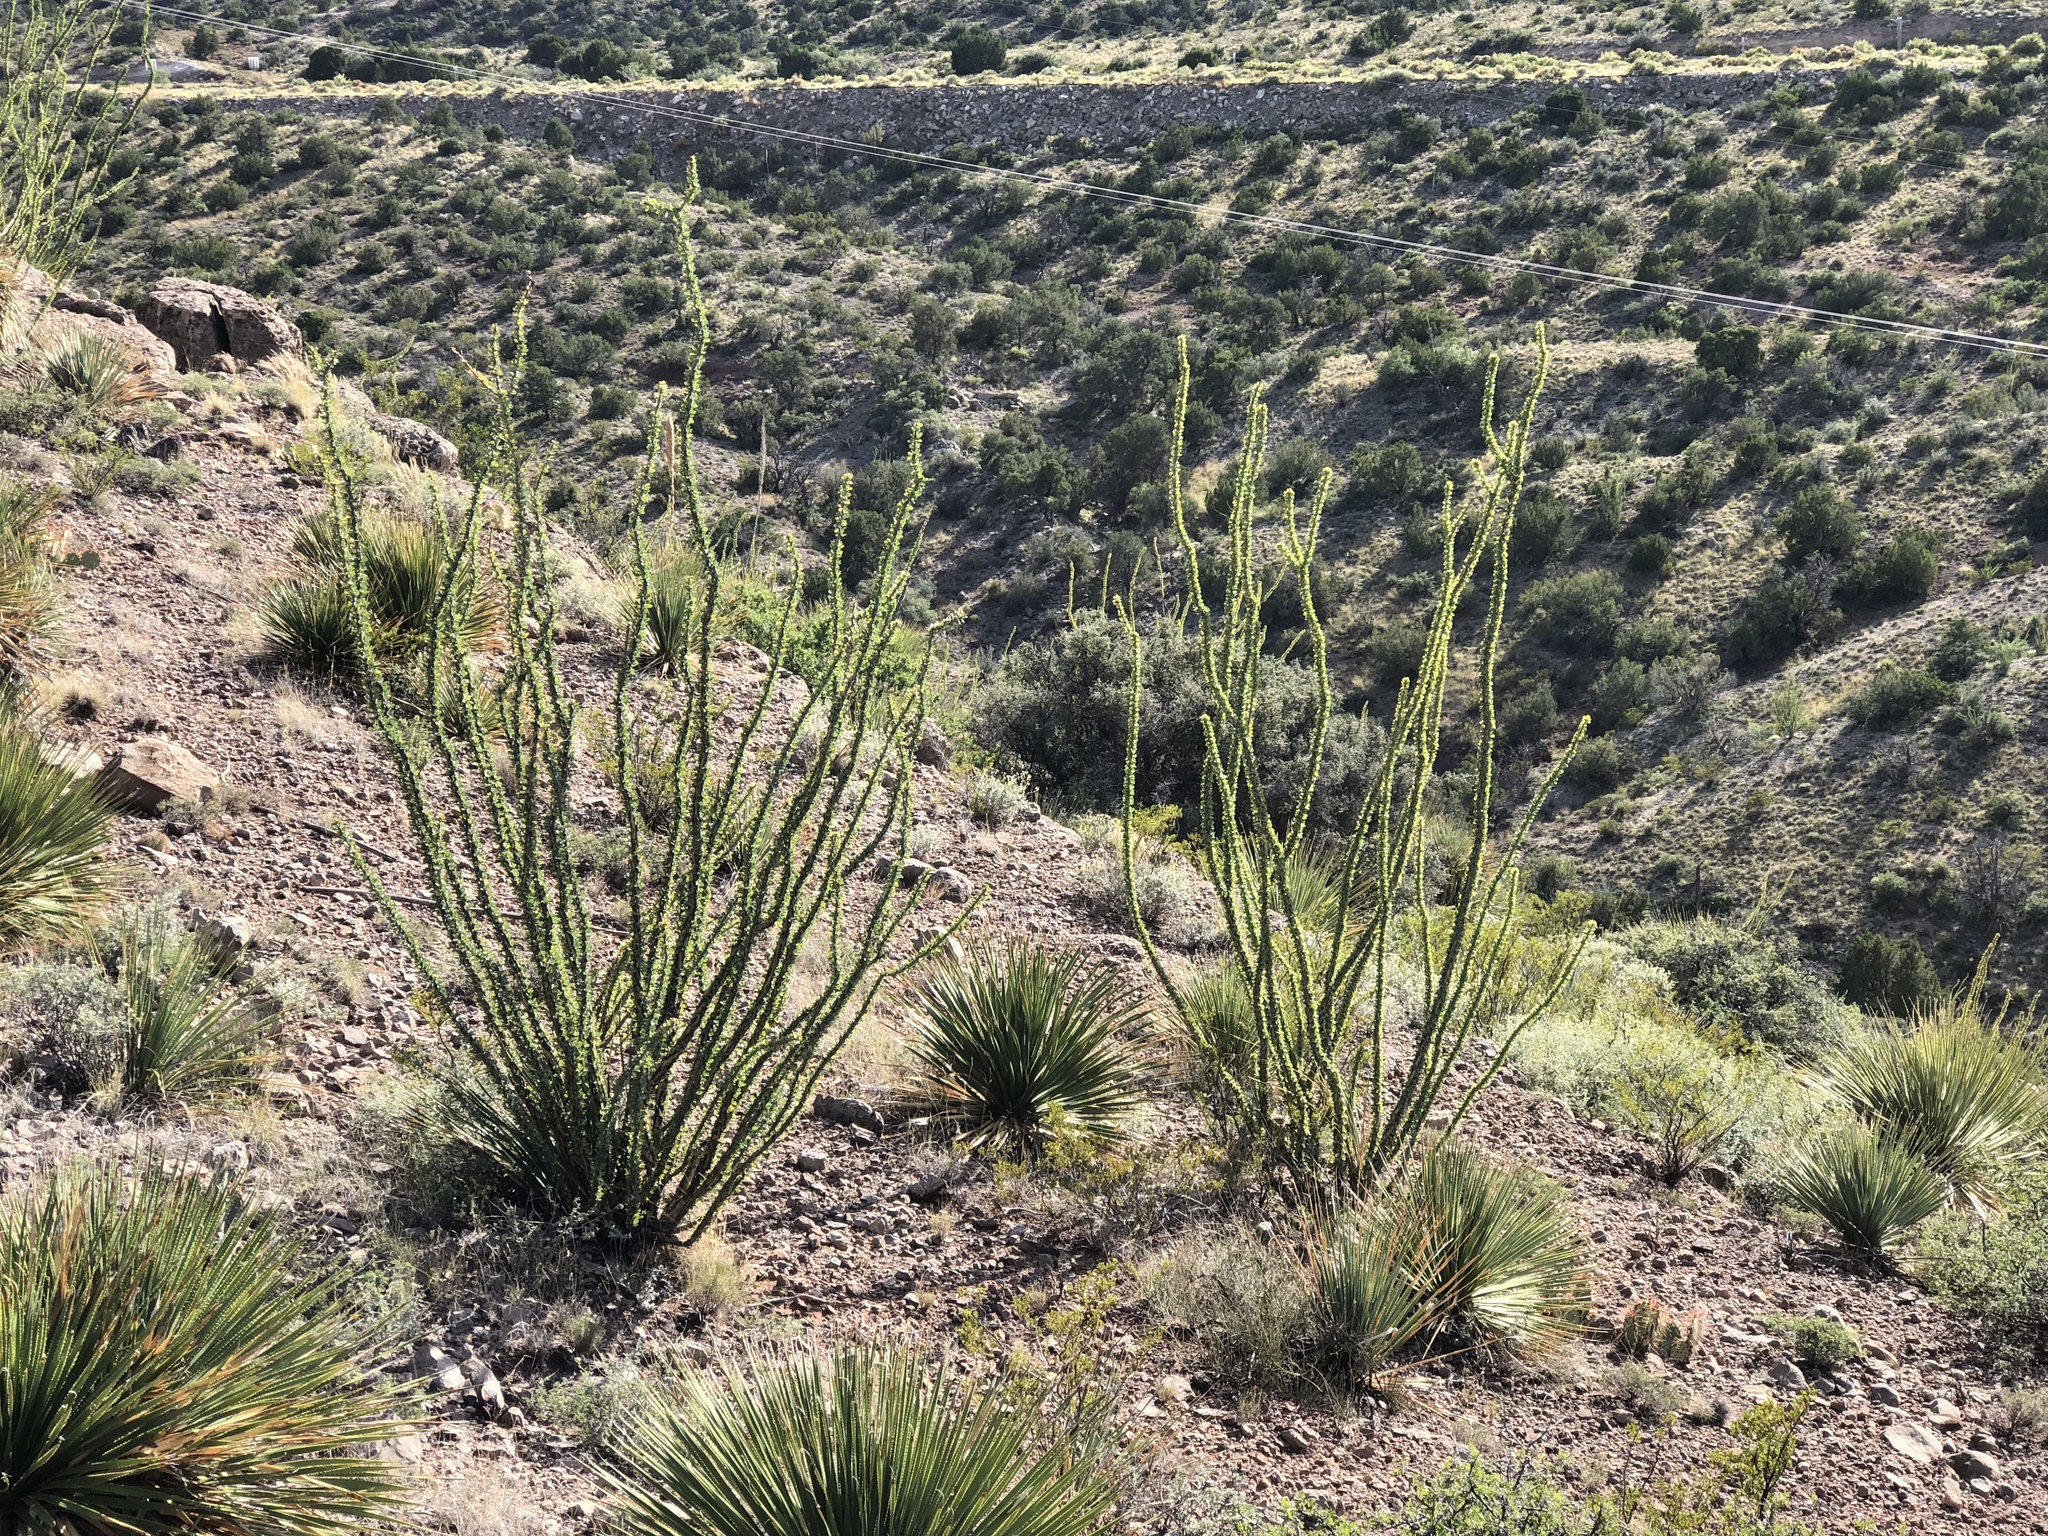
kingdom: Plantae
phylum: Tracheophyta
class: Magnoliopsida
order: Ericales
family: Fouquieriaceae
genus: Fouquieria
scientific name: Fouquieria splendens
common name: Vine-cactus
